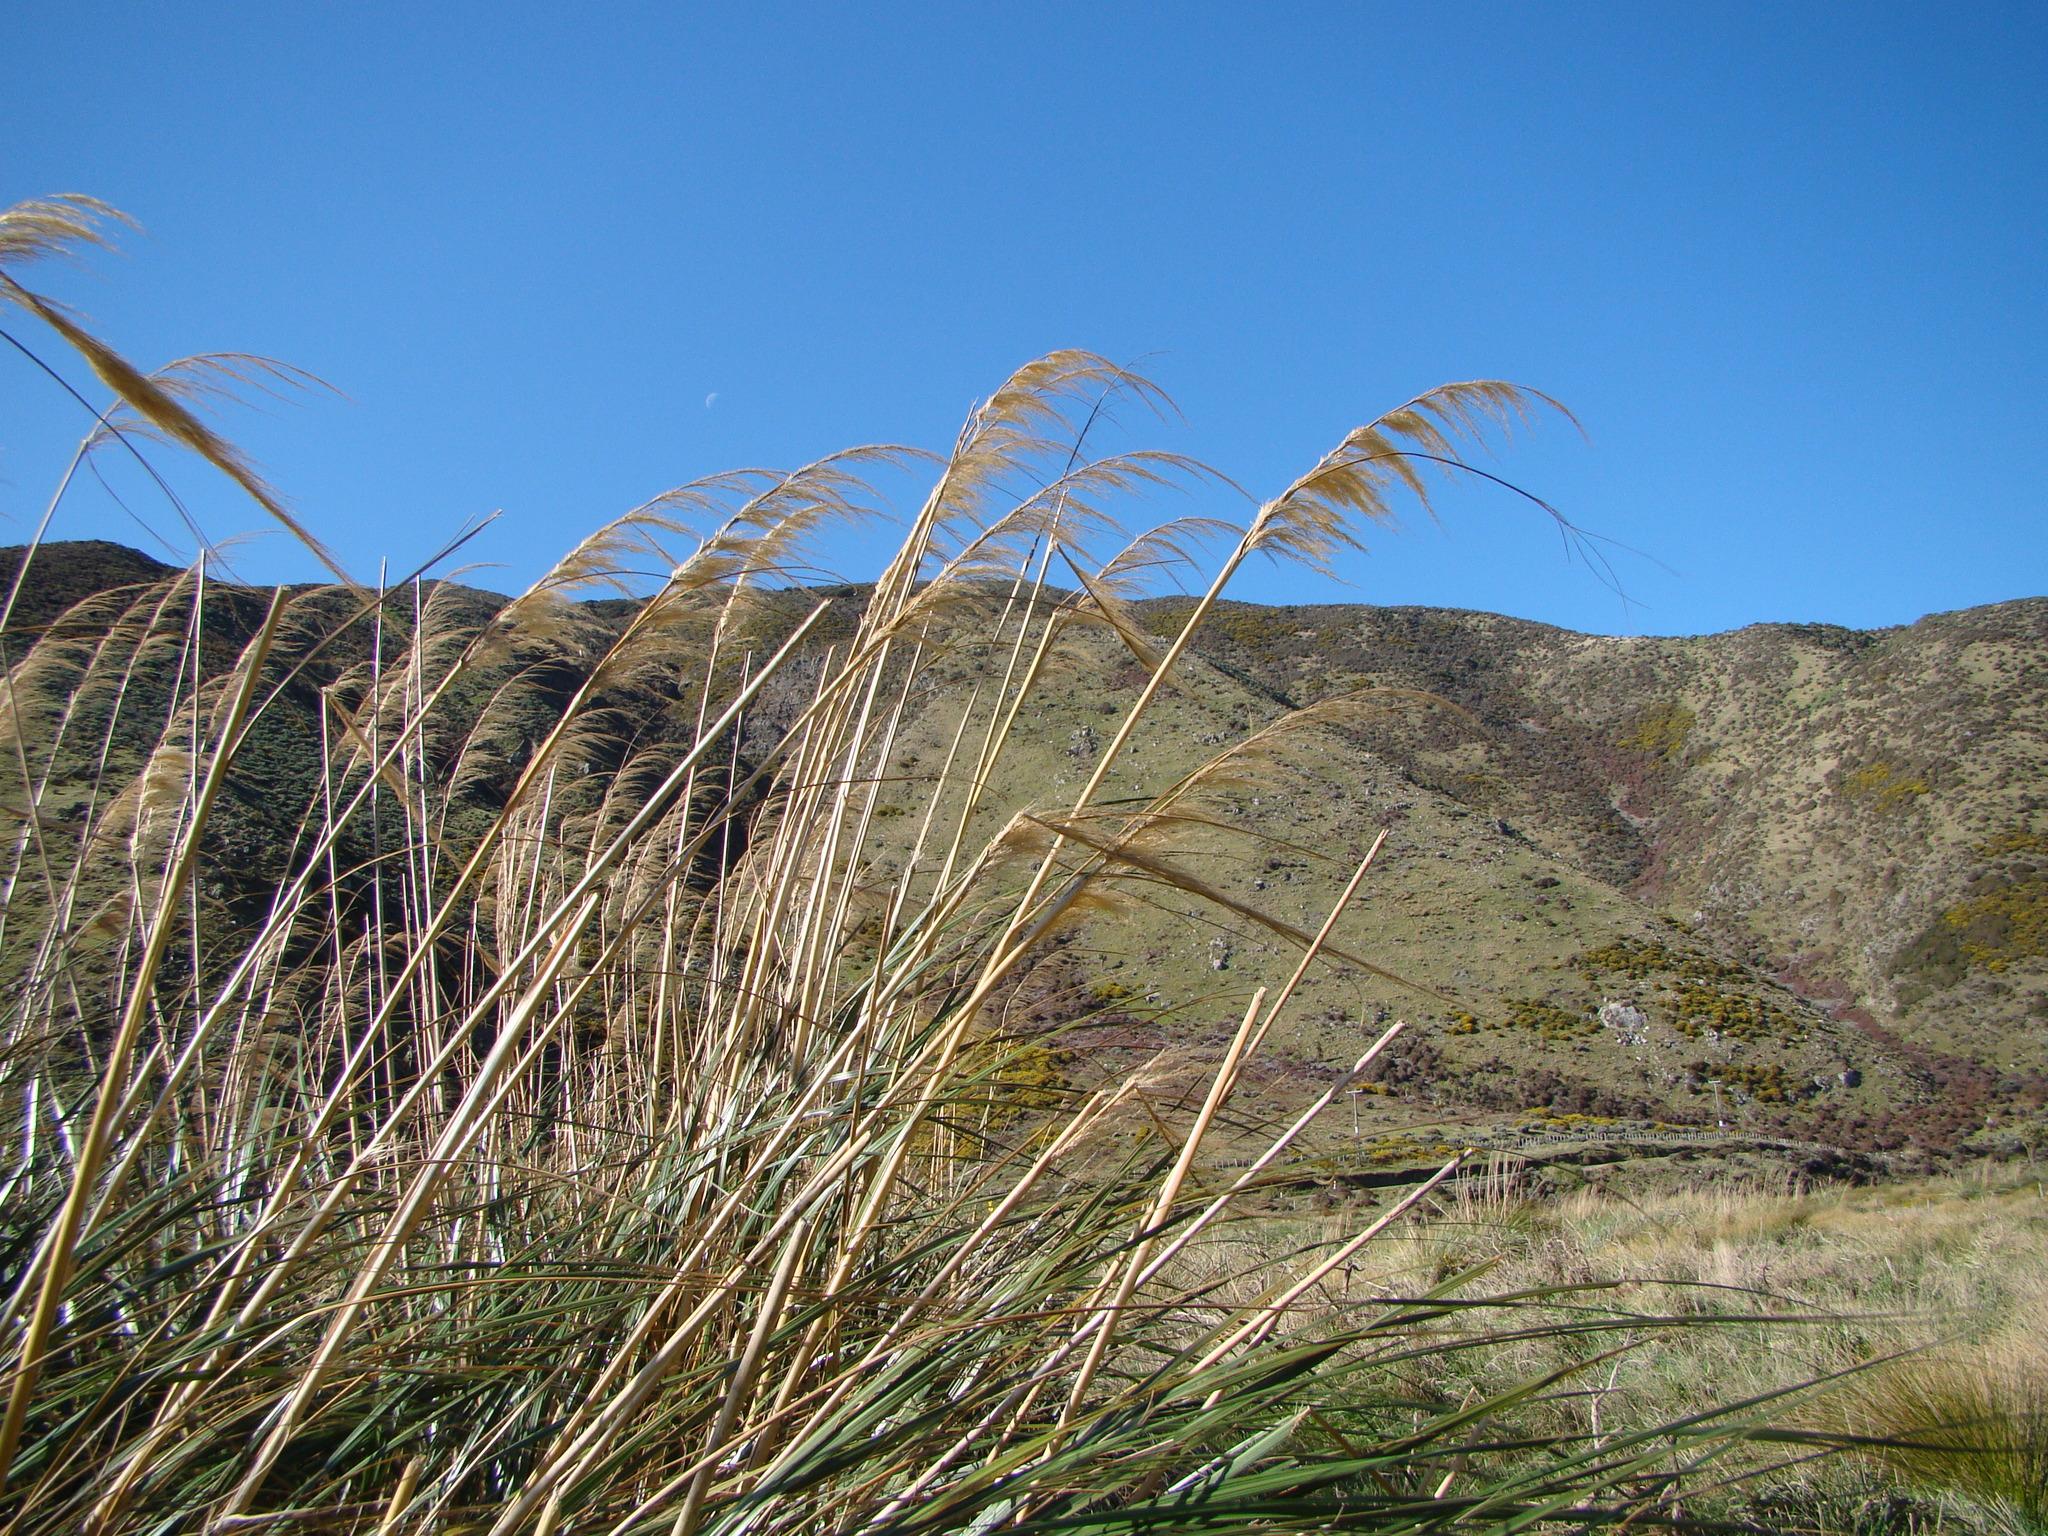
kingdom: Plantae
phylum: Tracheophyta
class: Liliopsida
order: Poales
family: Poaceae
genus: Austroderia
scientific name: Austroderia toetoe
